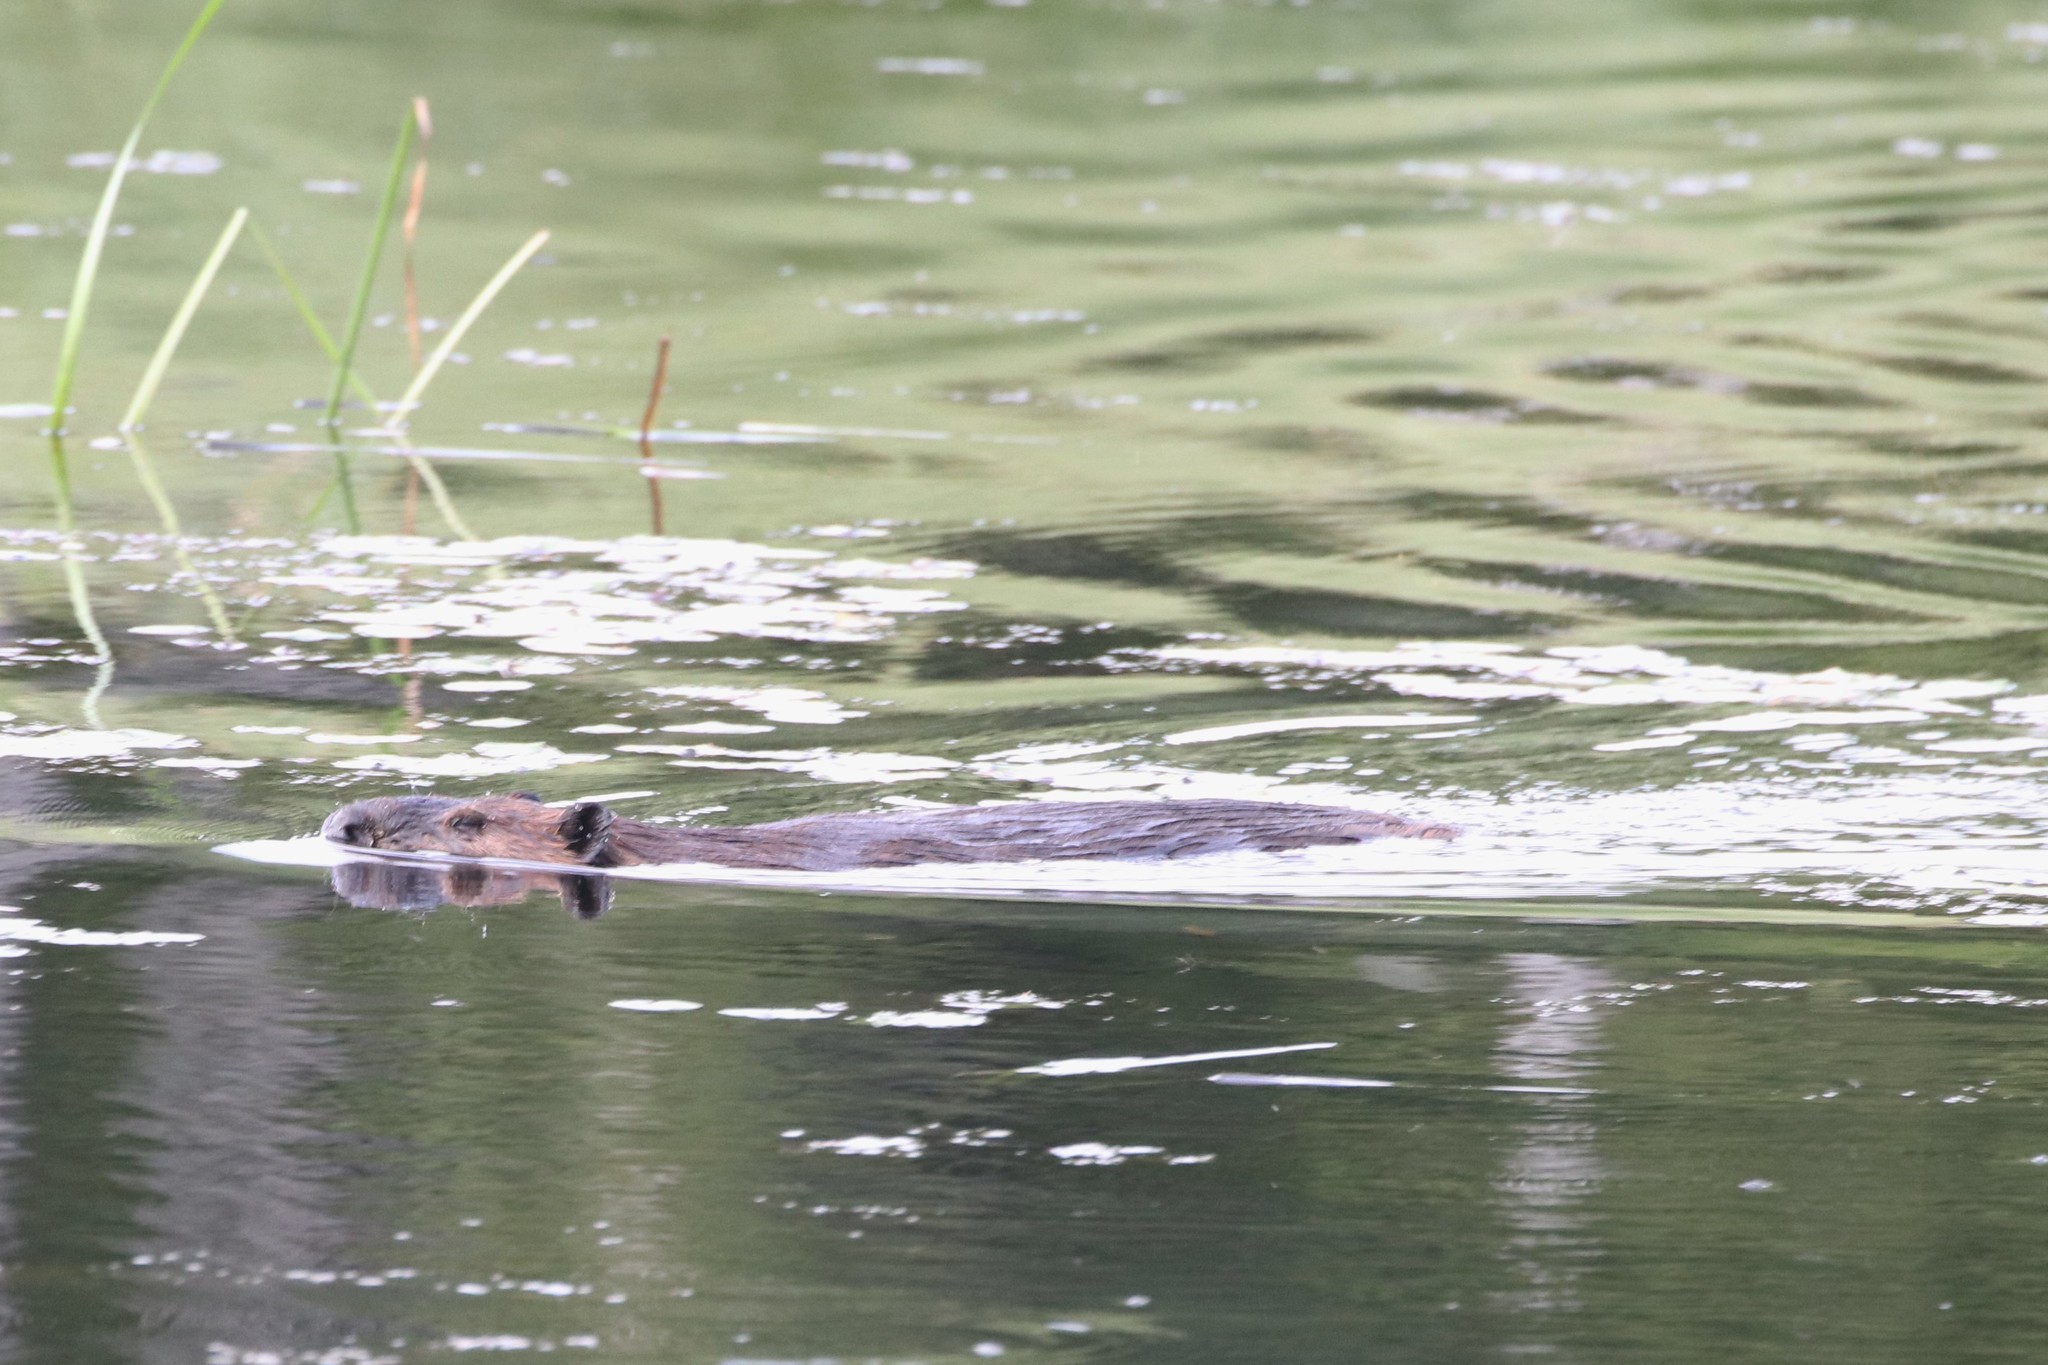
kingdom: Animalia
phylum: Chordata
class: Mammalia
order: Rodentia
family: Castoridae
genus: Castor
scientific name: Castor canadensis
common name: American beaver
